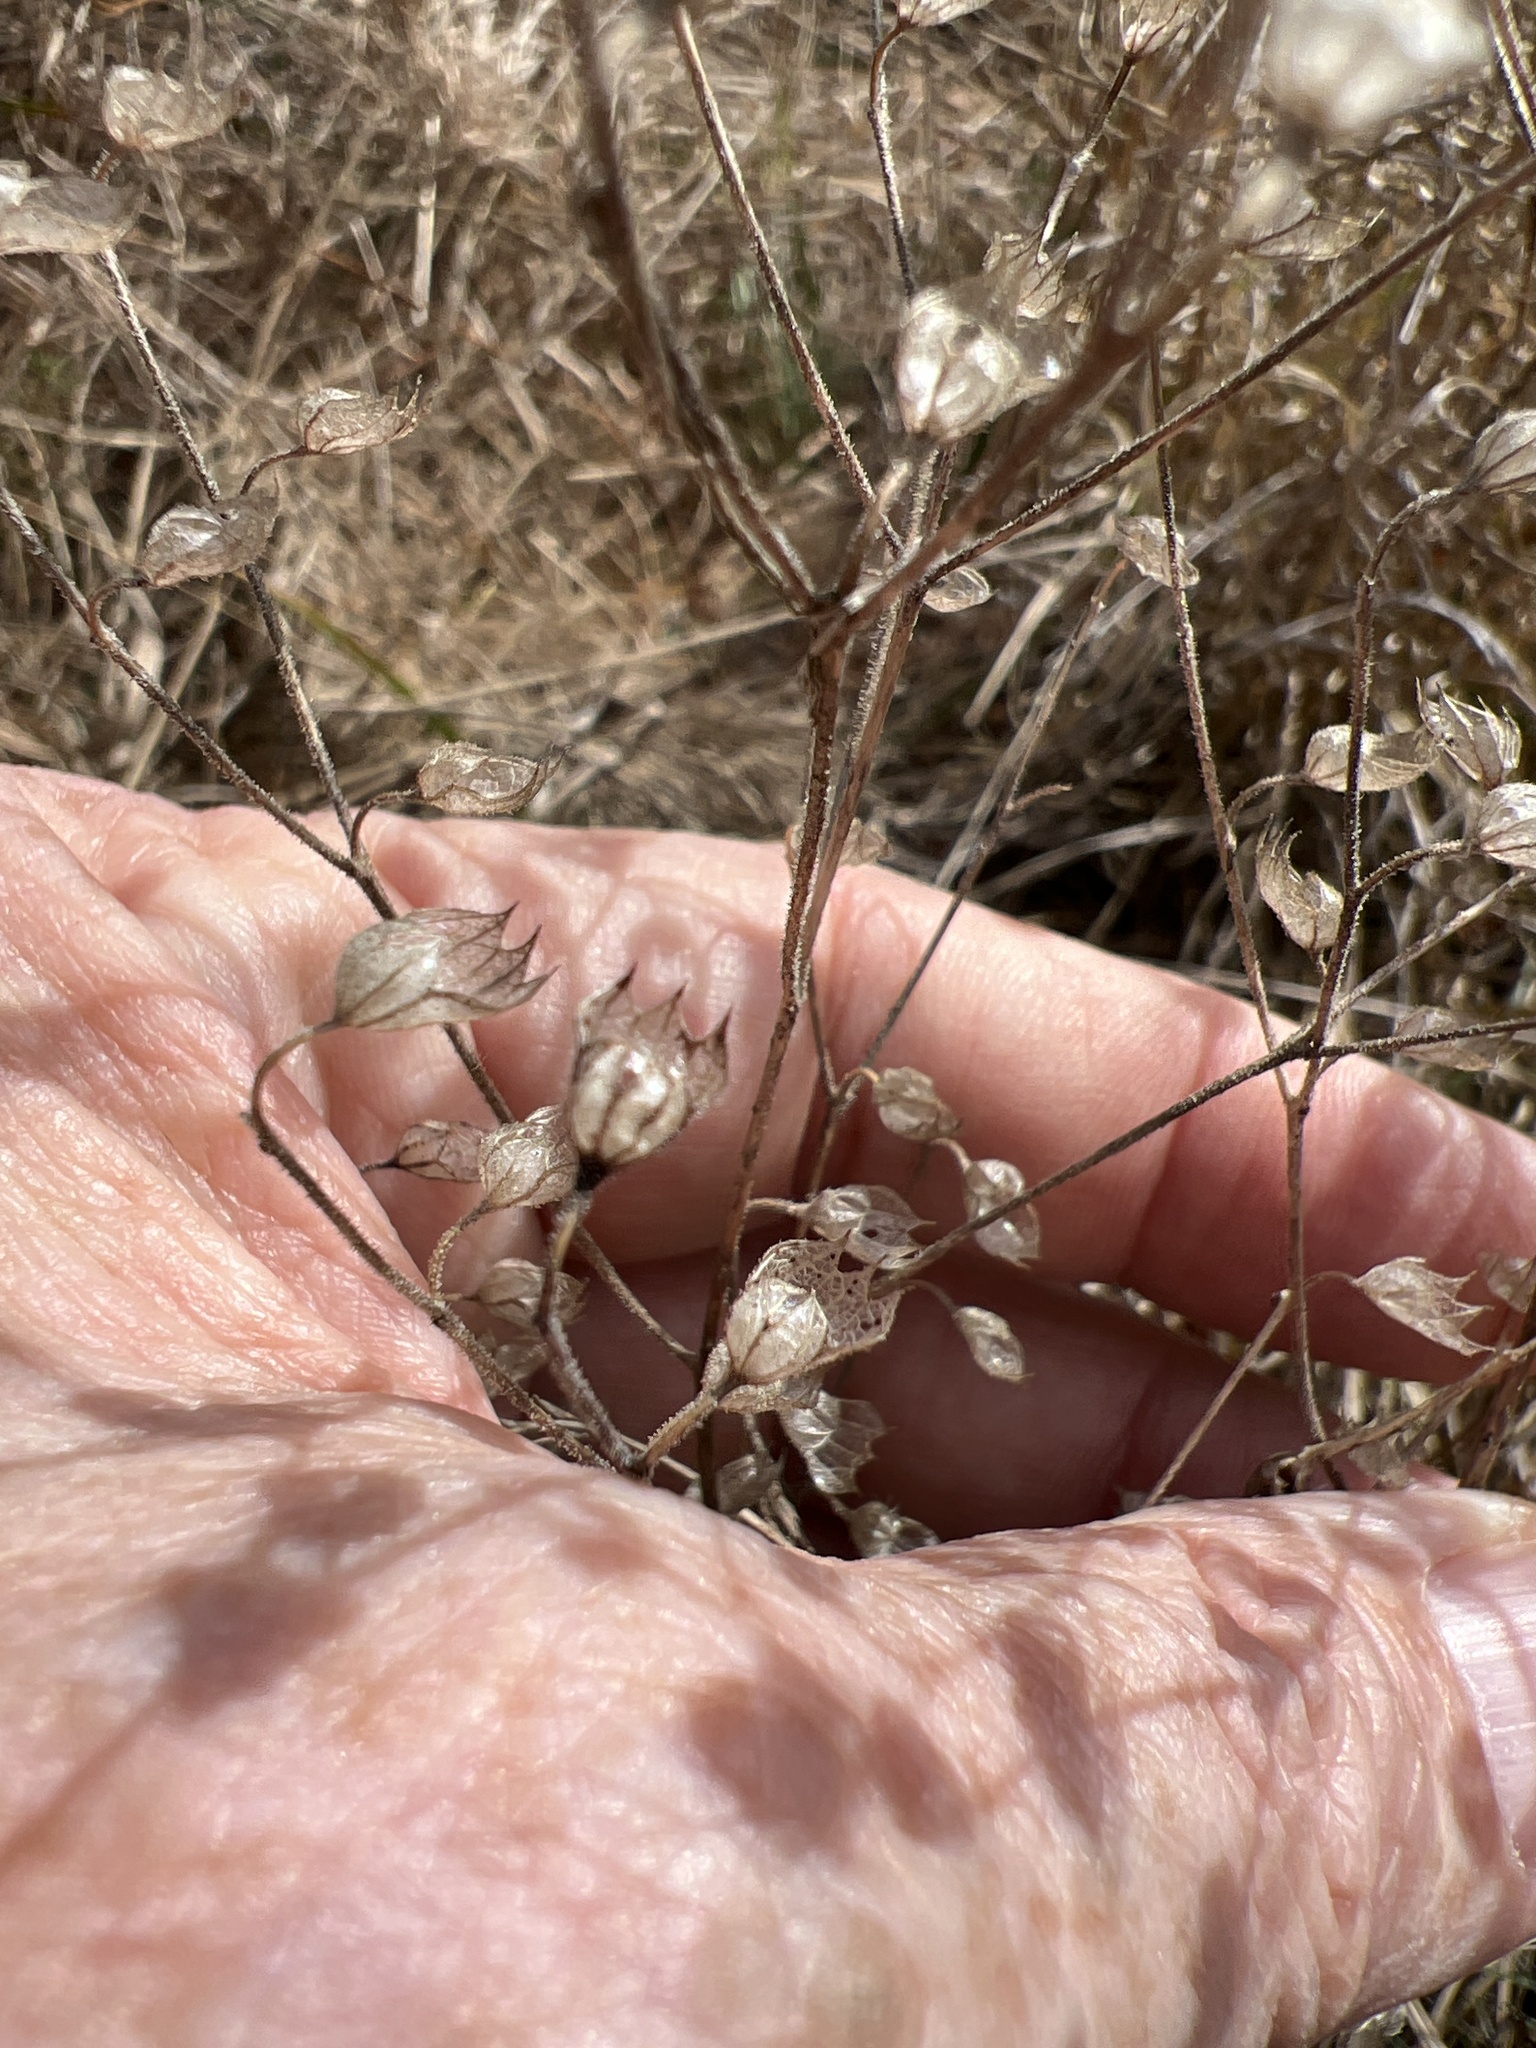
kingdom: Plantae
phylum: Tracheophyta
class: Magnoliopsida
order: Lamiales
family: Lamiaceae
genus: Trichostema
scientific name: Trichostema dichotomum
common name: Bastard pennyroyal
